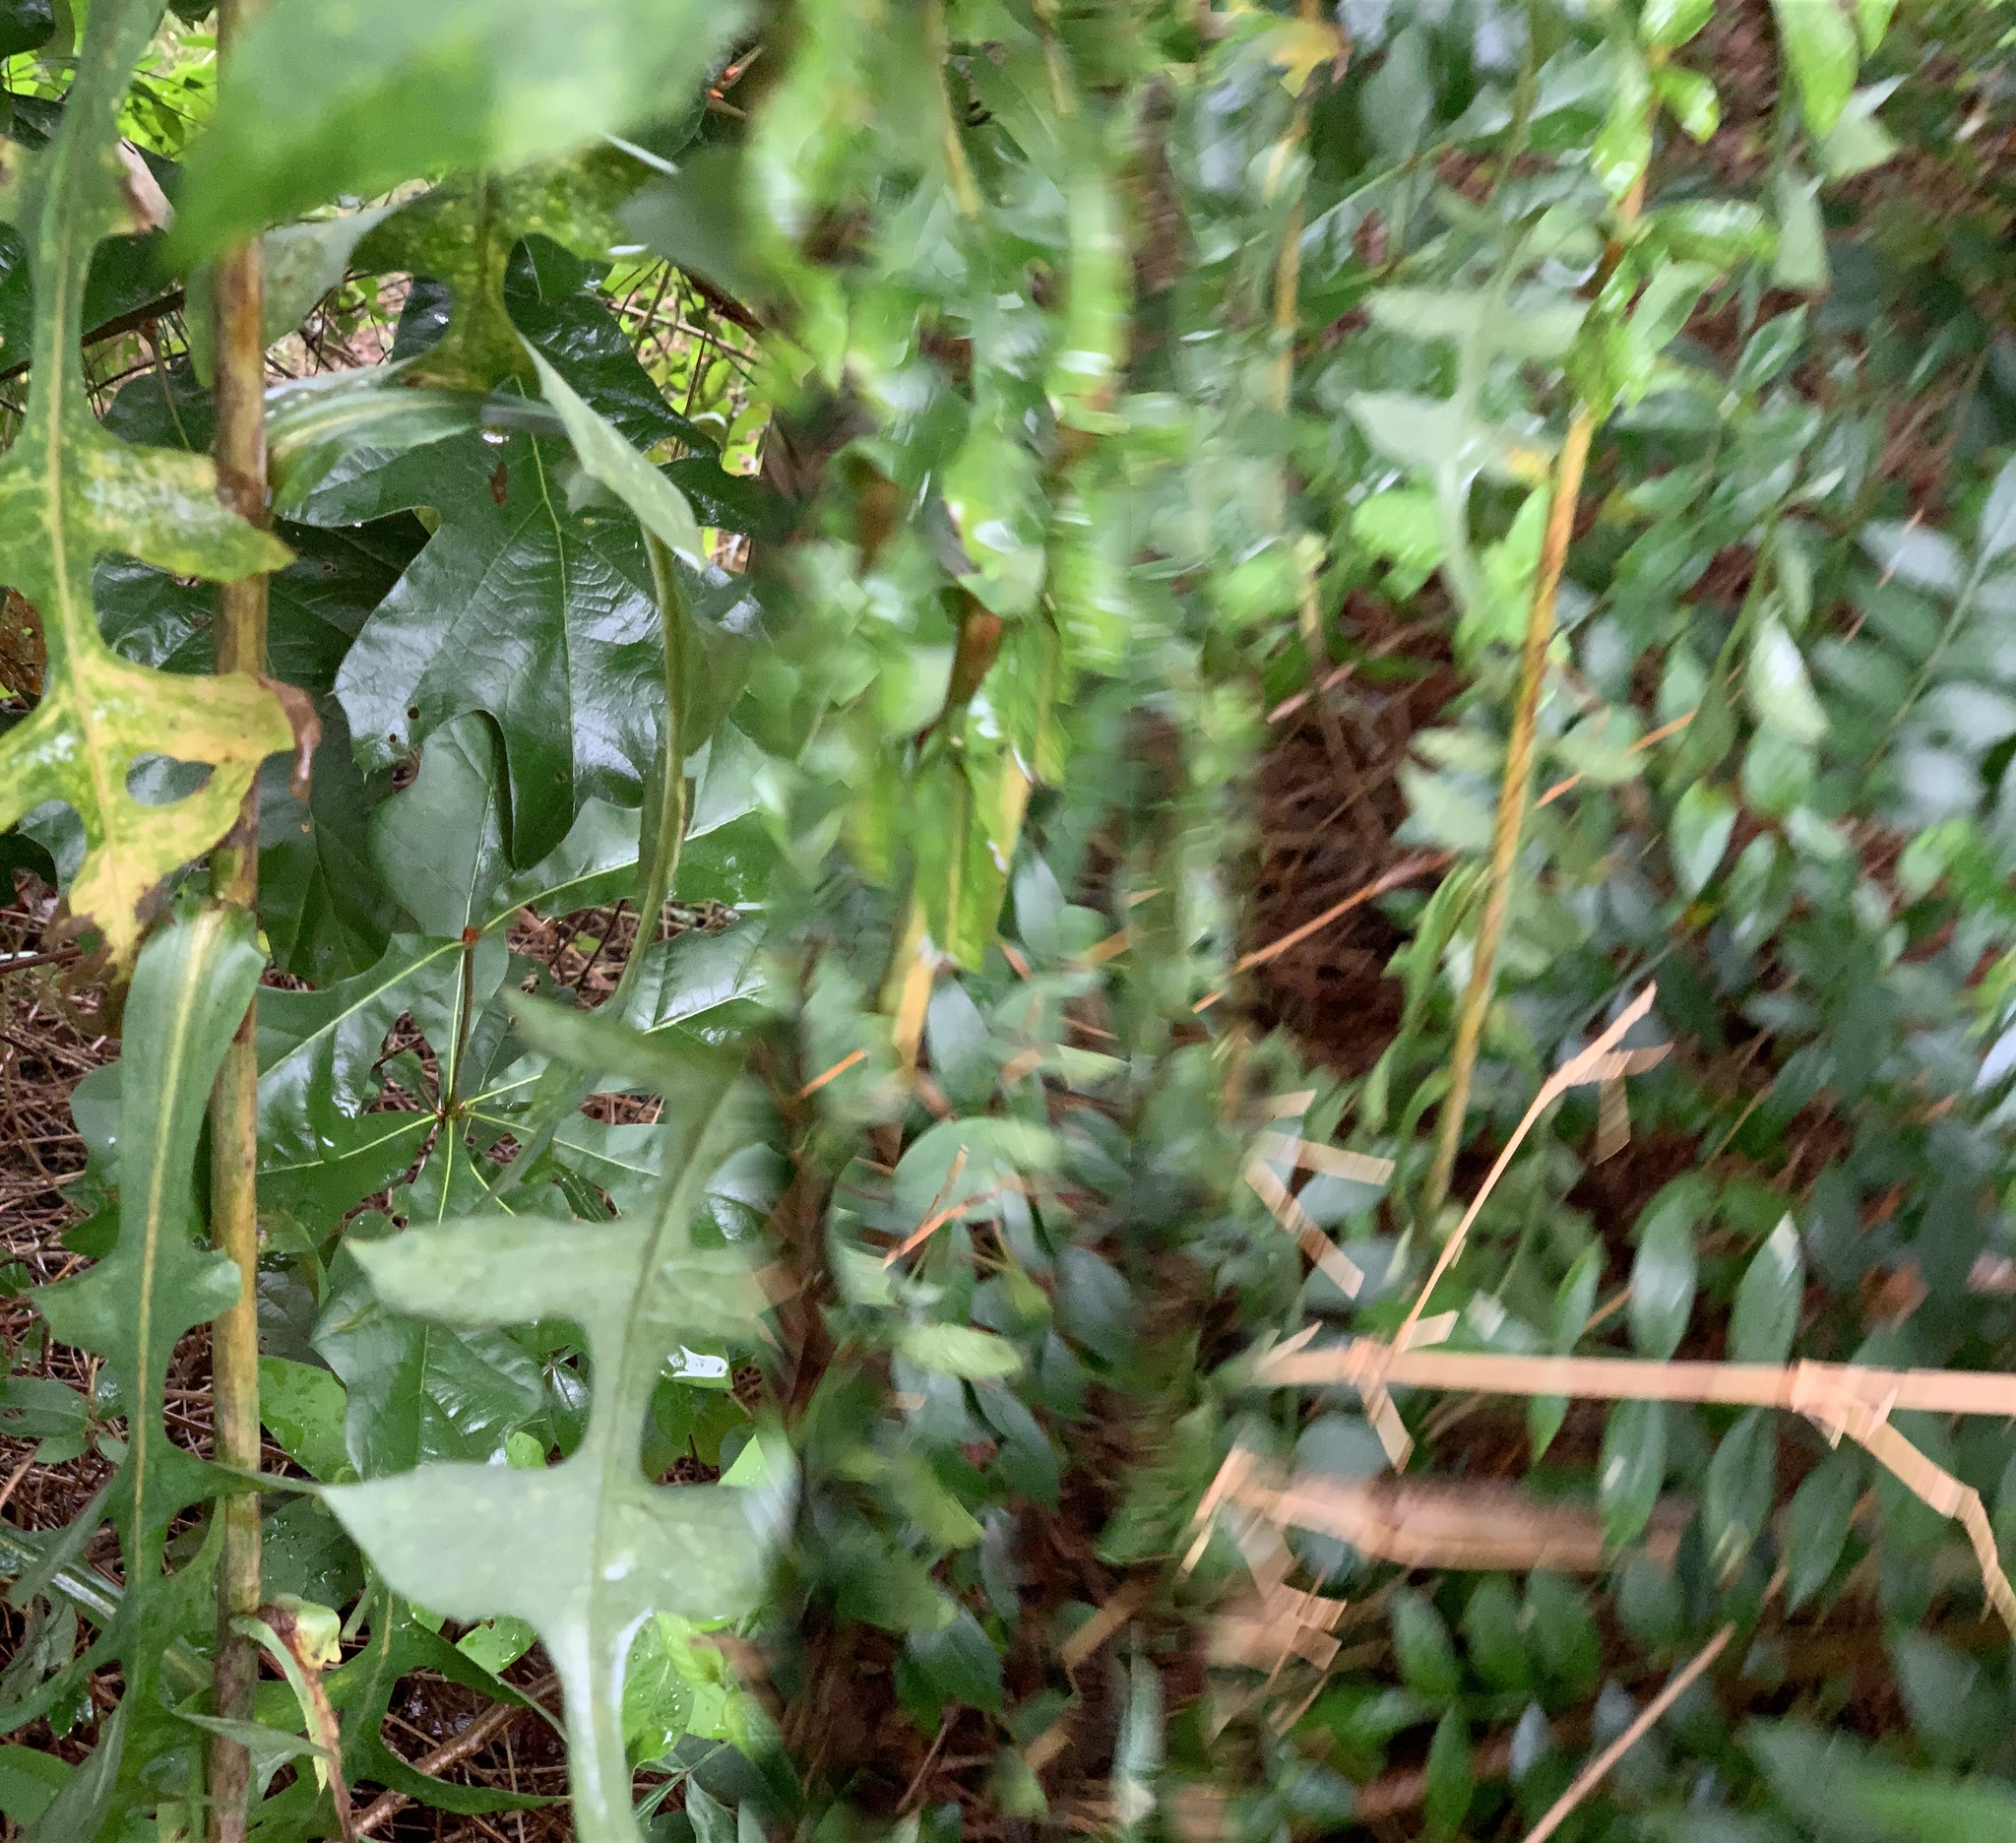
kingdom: Plantae
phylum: Tracheophyta
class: Magnoliopsida
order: Asterales
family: Asteraceae
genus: Lactuca
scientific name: Lactuca canadensis
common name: Canada lettuce
